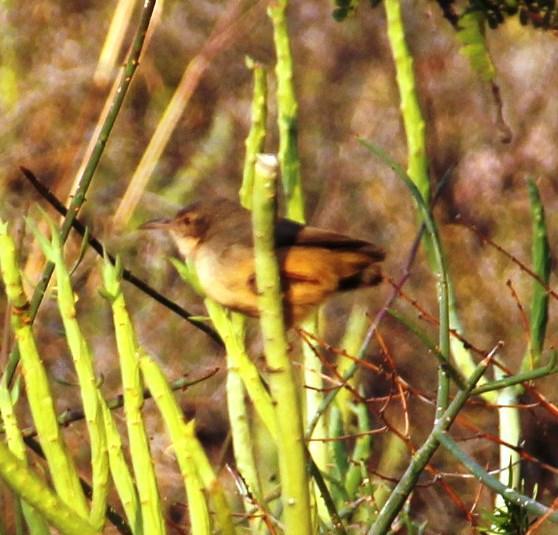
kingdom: Animalia
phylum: Chordata
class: Aves
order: Passeriformes
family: Macrosphenidae
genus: Sylvietta
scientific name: Sylvietta rufescens
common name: Long-billed crombec
